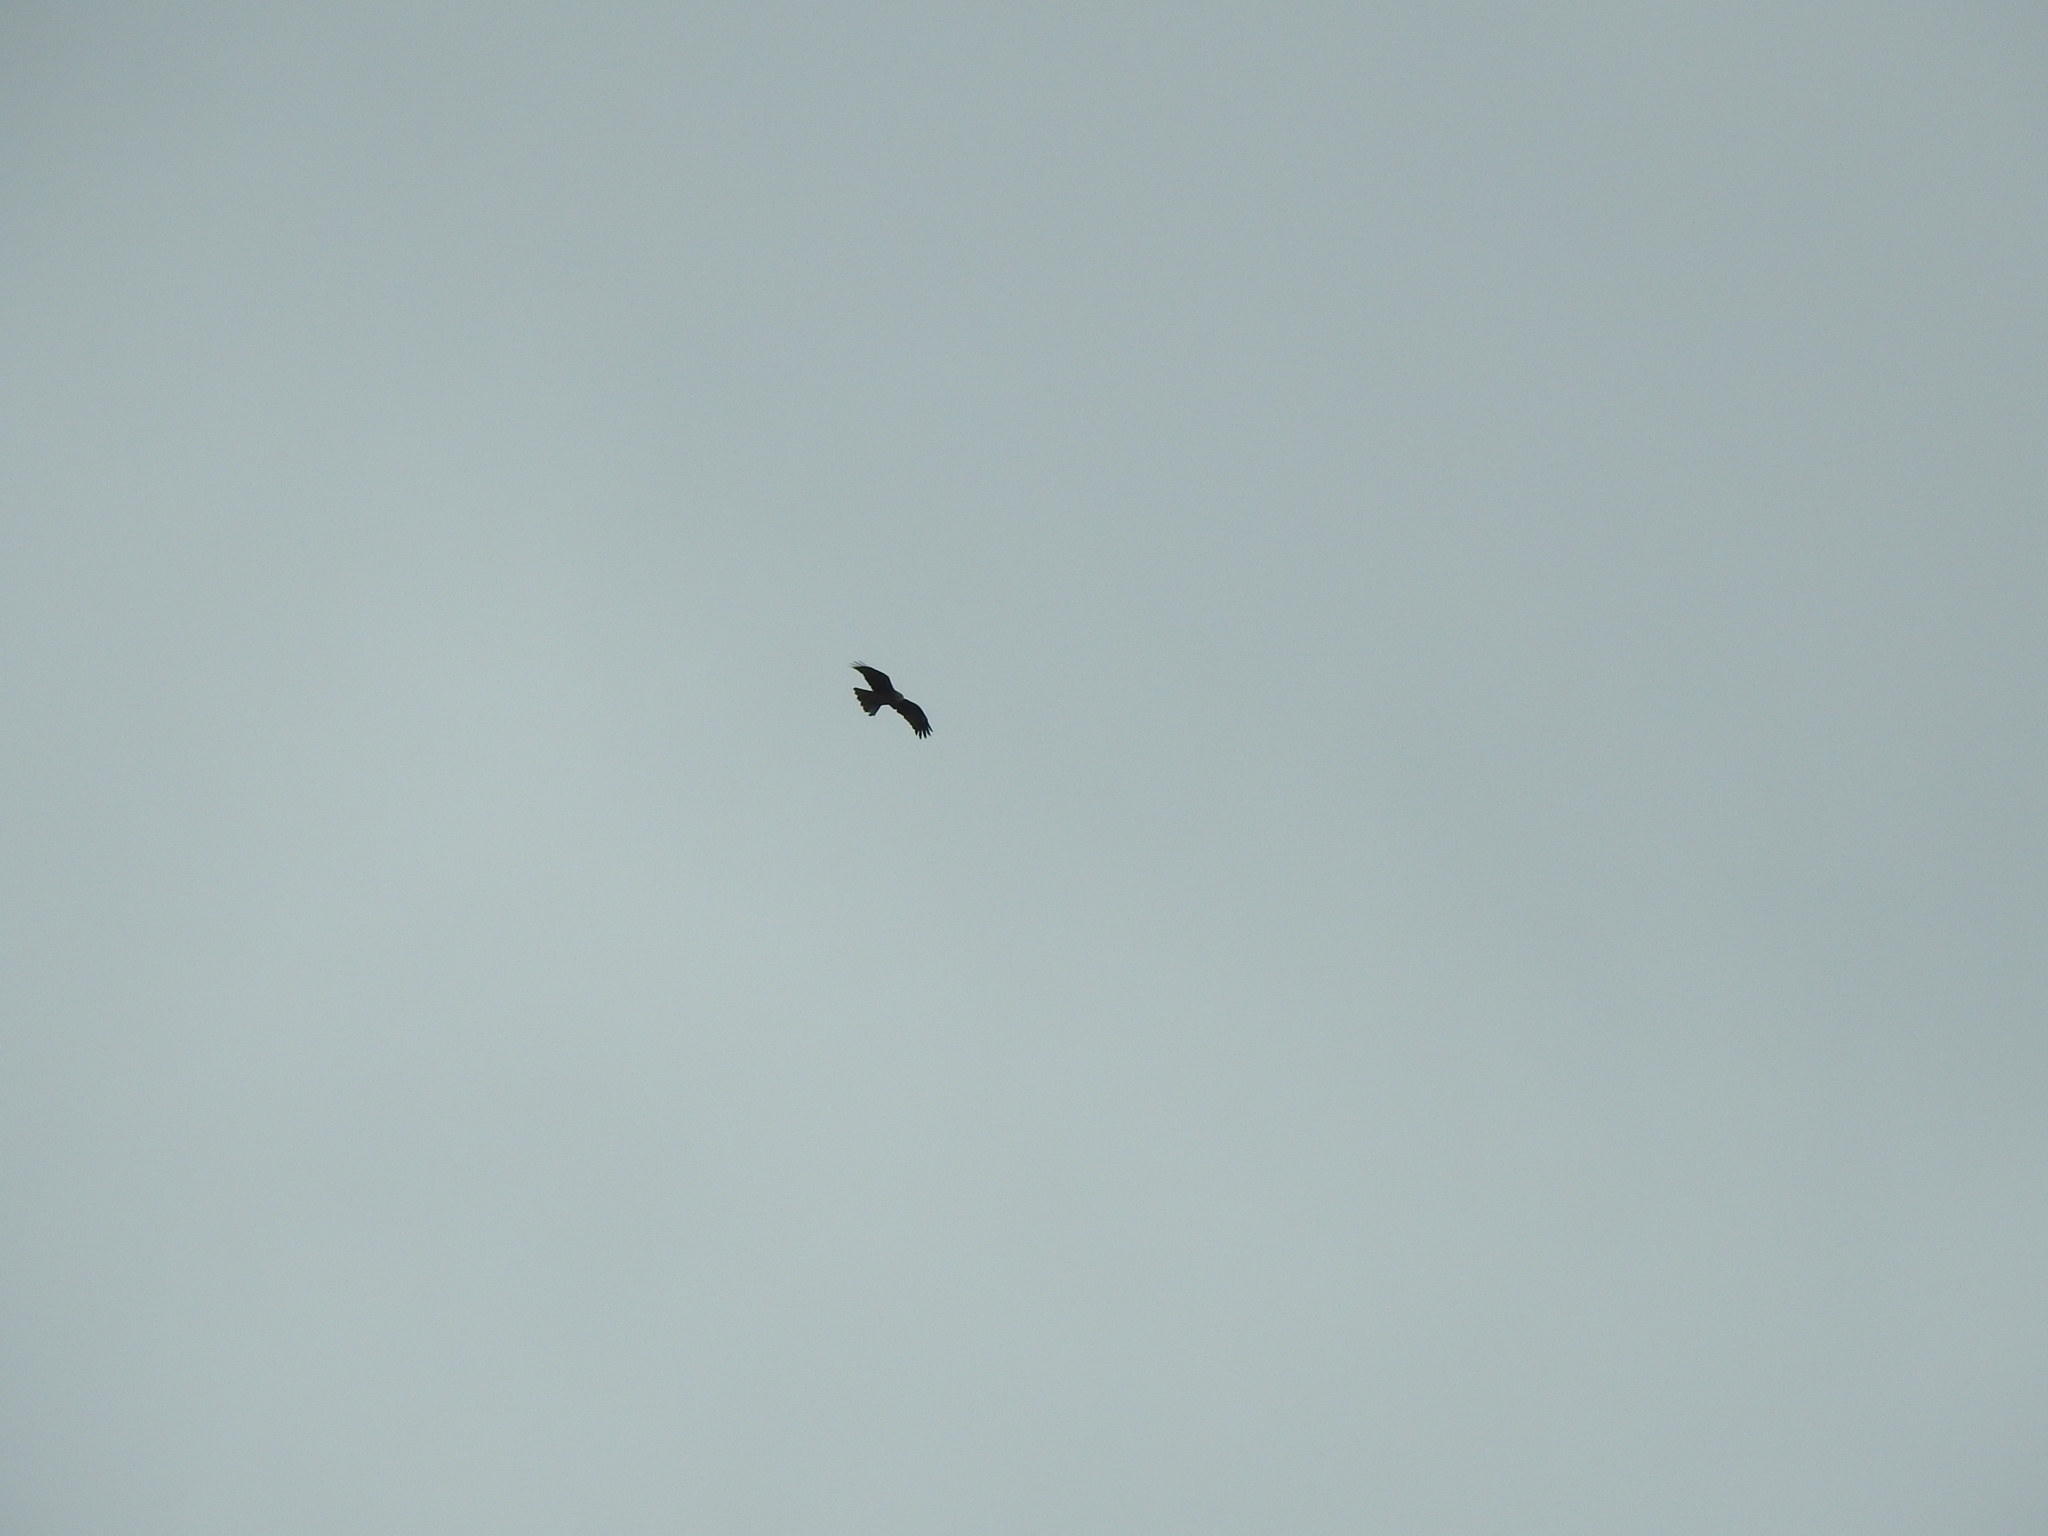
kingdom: Animalia
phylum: Chordata
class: Aves
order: Accipitriformes
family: Accipitridae
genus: Milvus
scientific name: Milvus migrans
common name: Black kite
